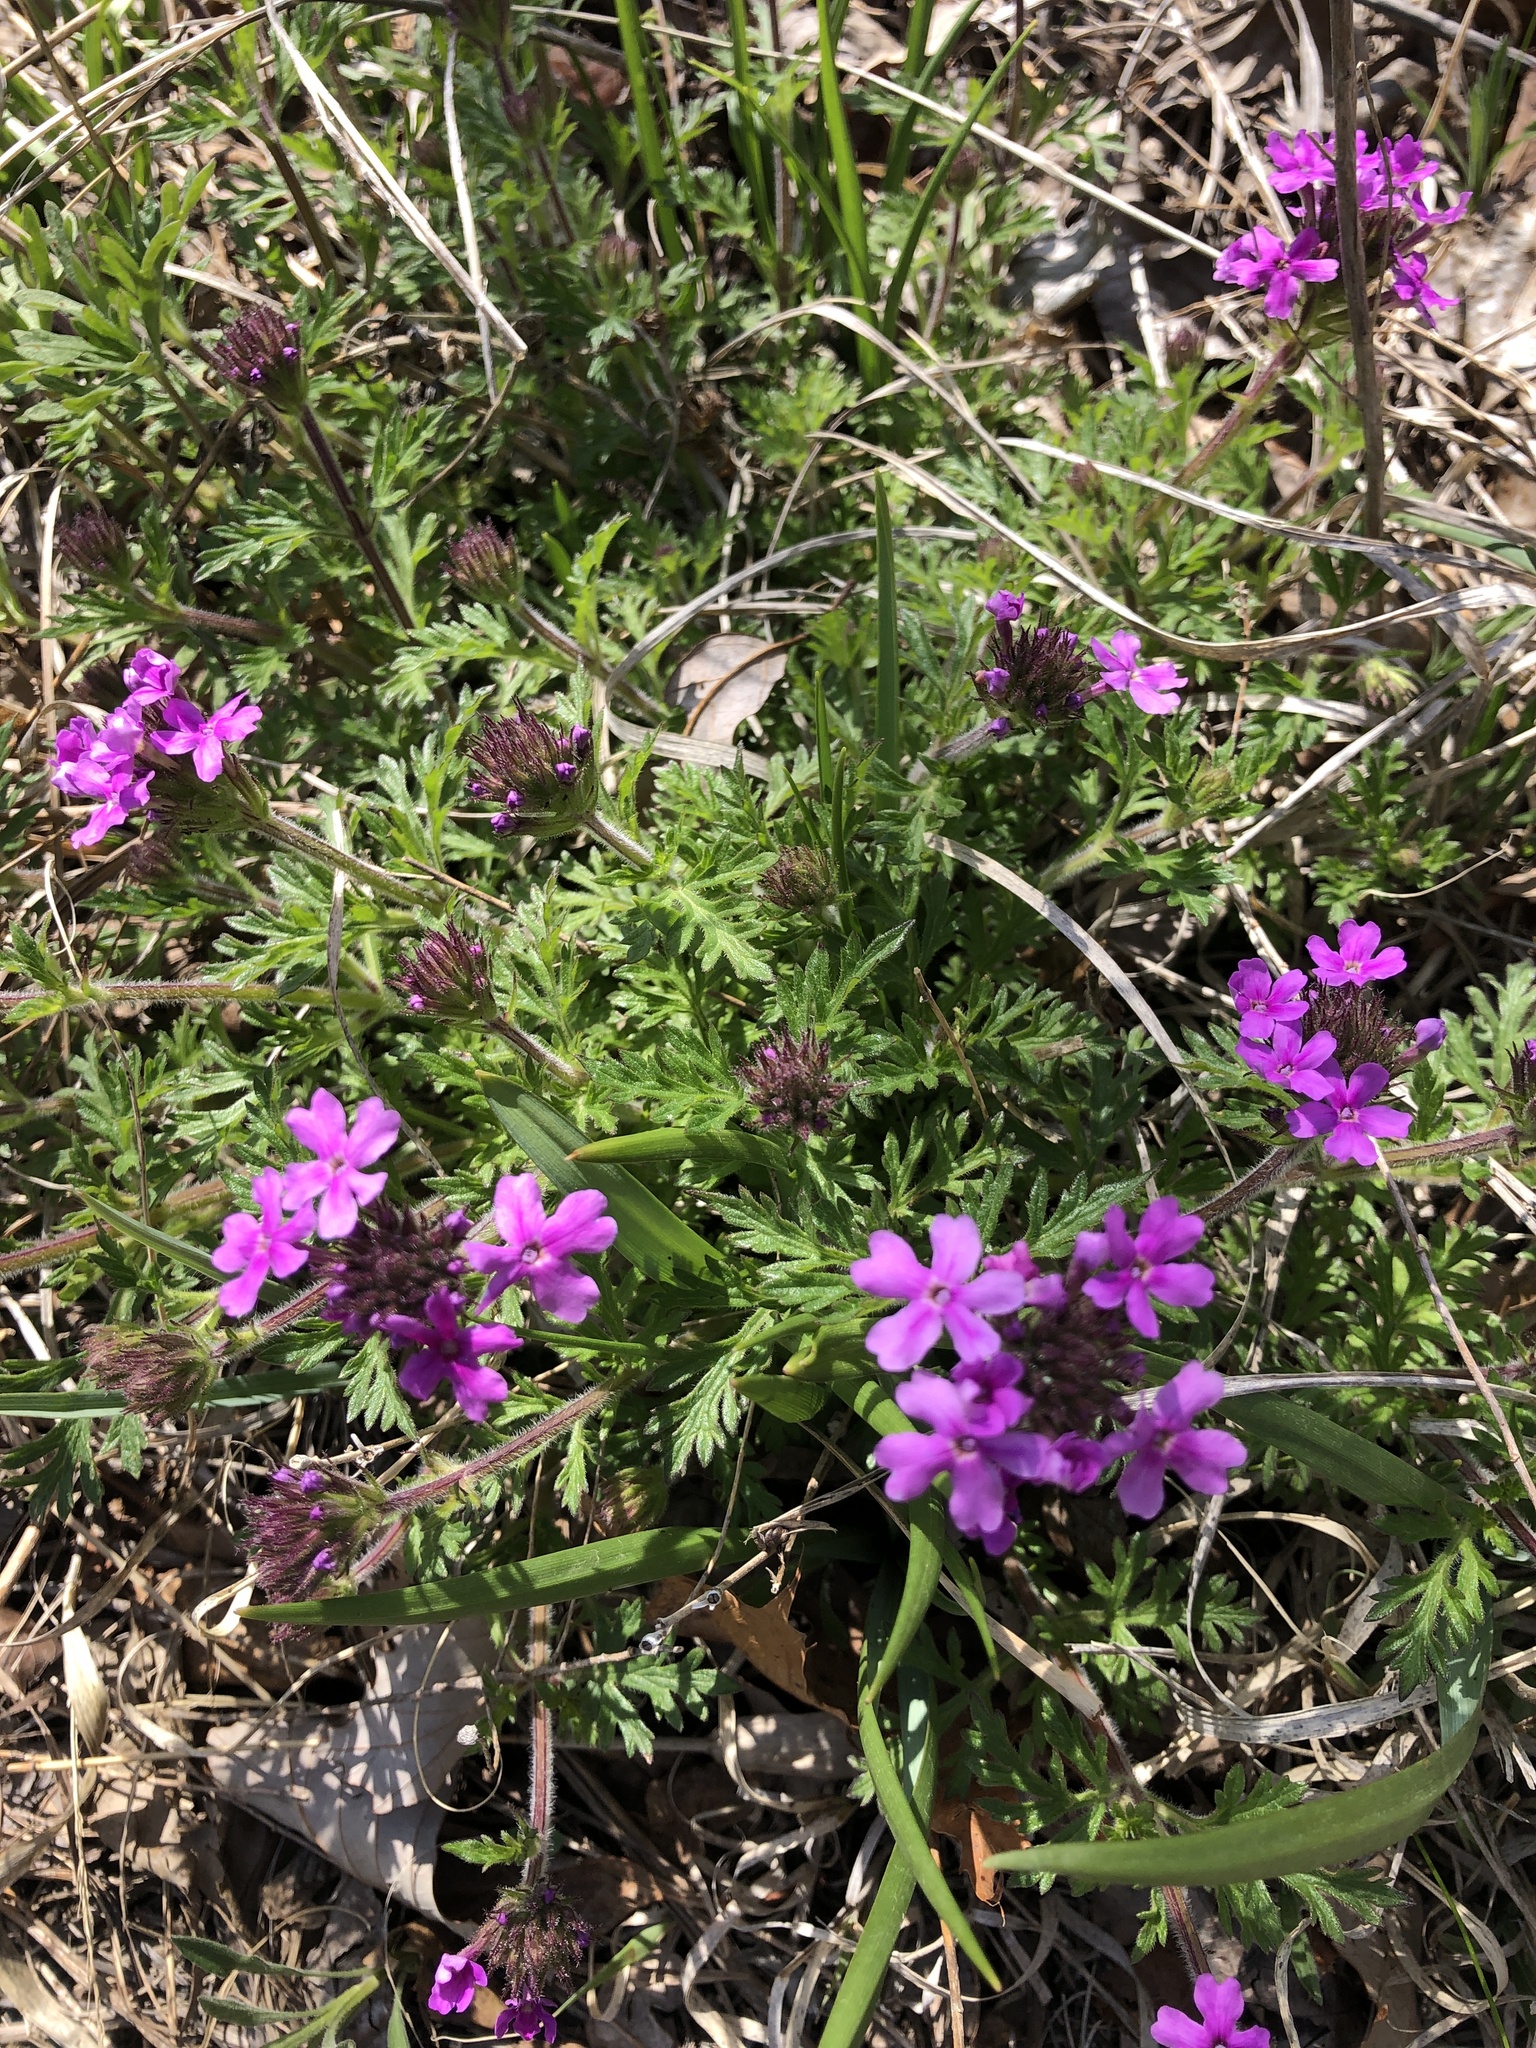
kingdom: Plantae
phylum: Tracheophyta
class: Magnoliopsida
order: Lamiales
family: Verbenaceae
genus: Verbena
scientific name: Verbena canadensis
